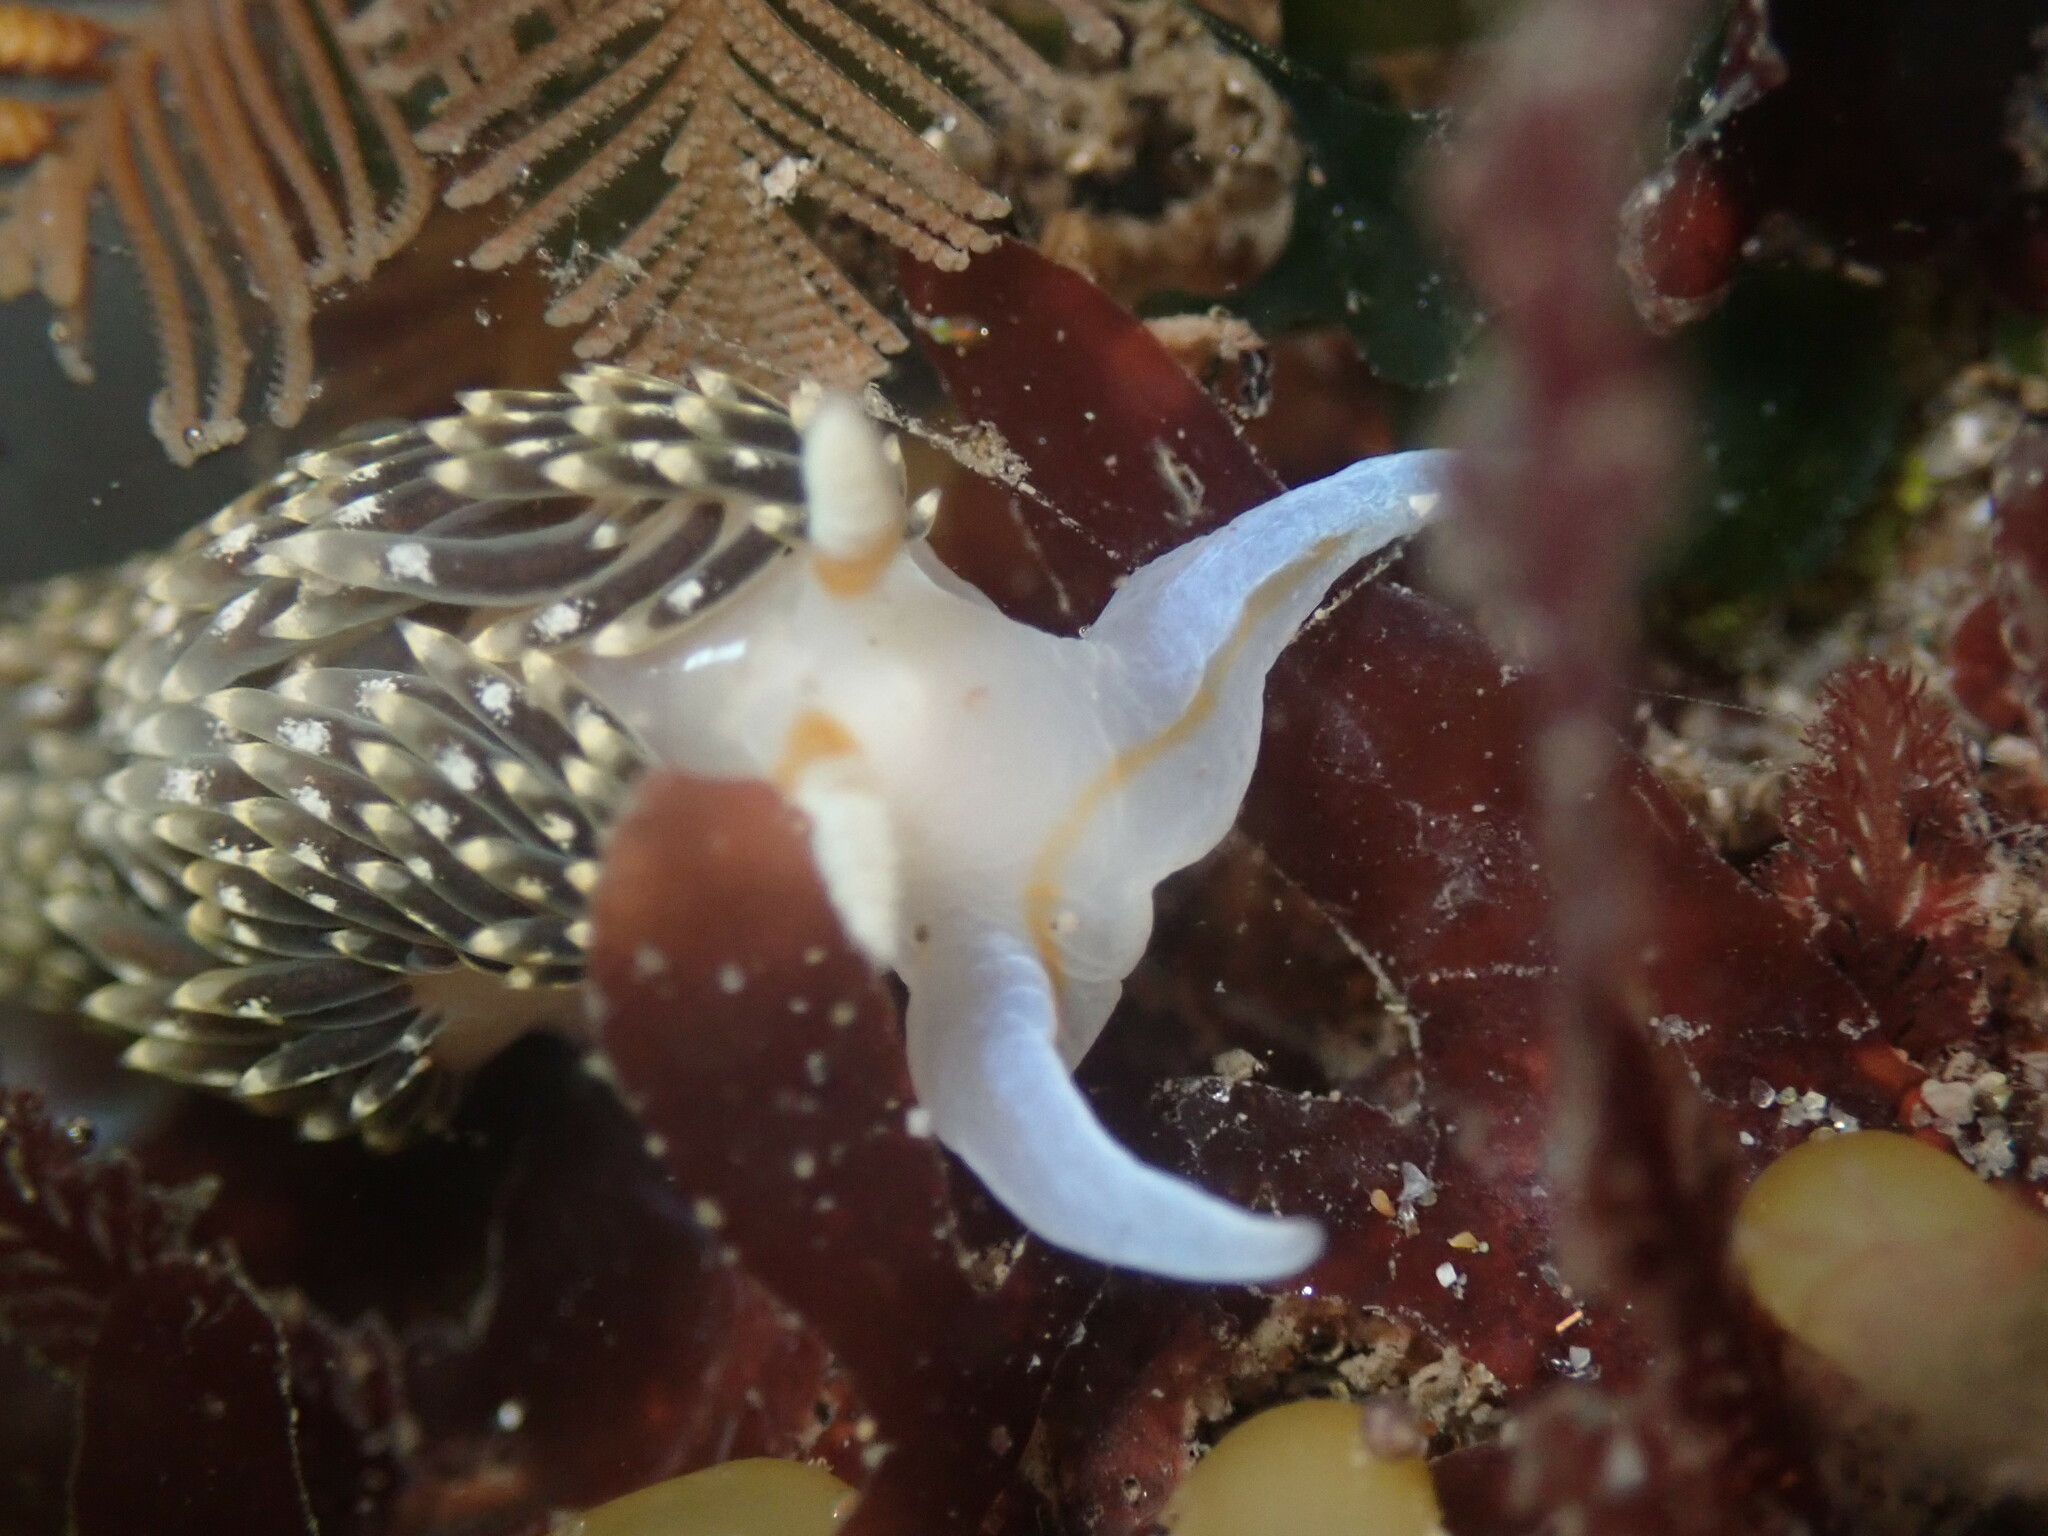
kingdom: Animalia
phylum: Mollusca
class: Gastropoda
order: Nudibranchia
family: Facelinidae
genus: Phidiana
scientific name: Phidiana hiltoni
